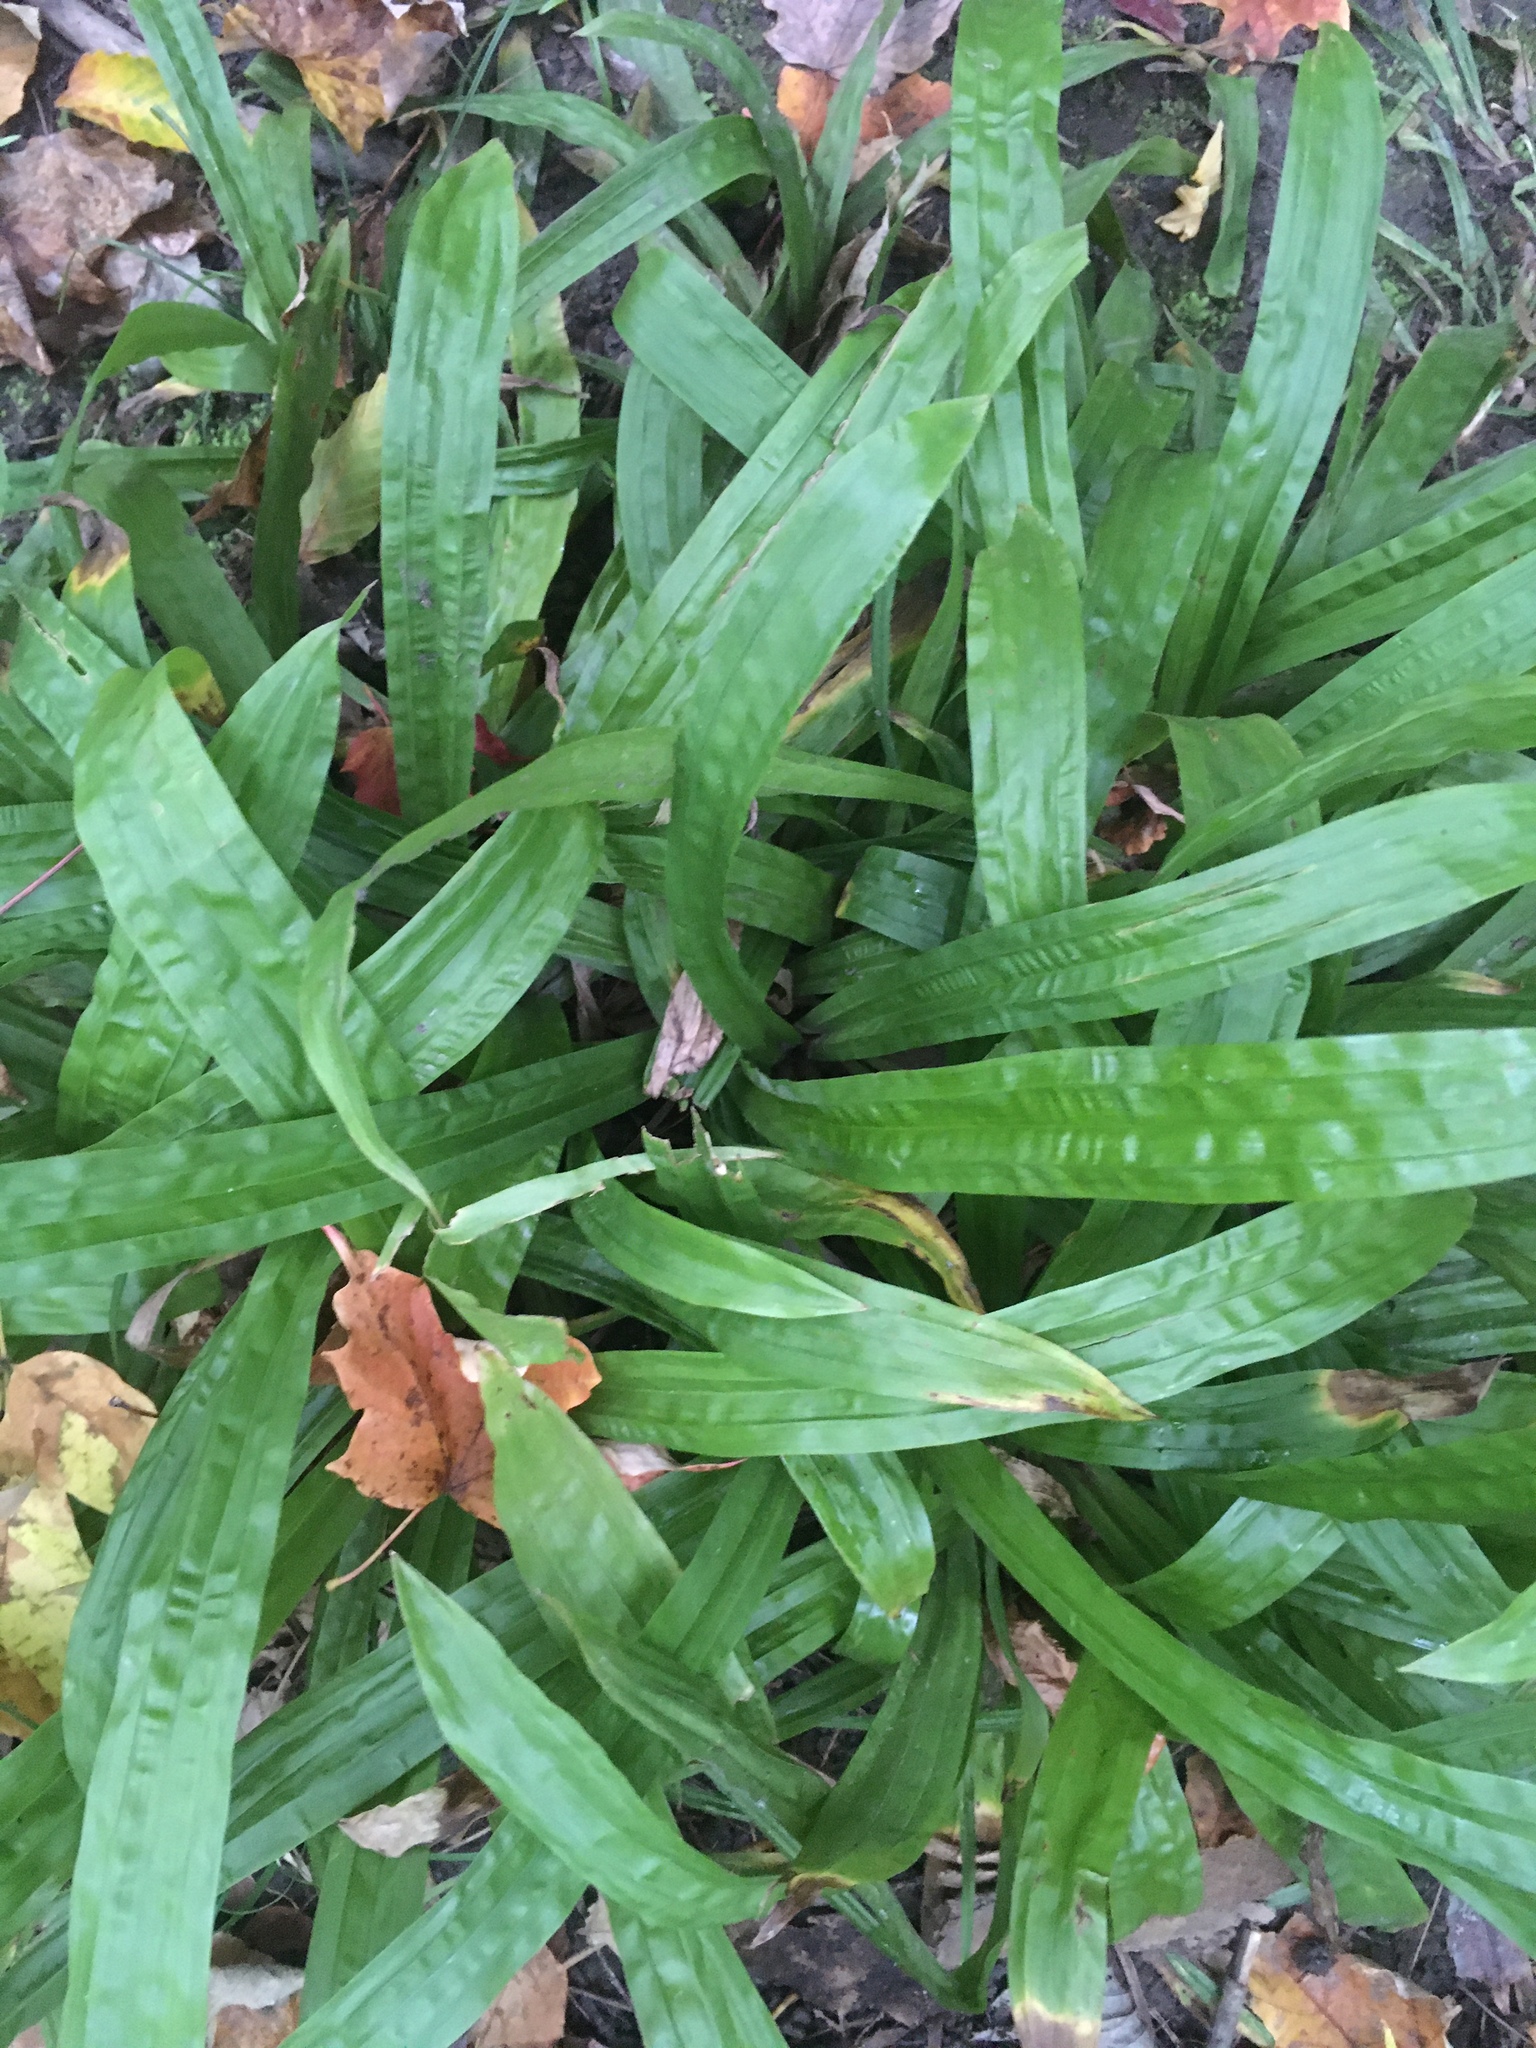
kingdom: Plantae
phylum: Tracheophyta
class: Liliopsida
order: Poales
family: Cyperaceae
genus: Carex
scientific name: Carex plantaginea
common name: Plantain-leaved sedge
